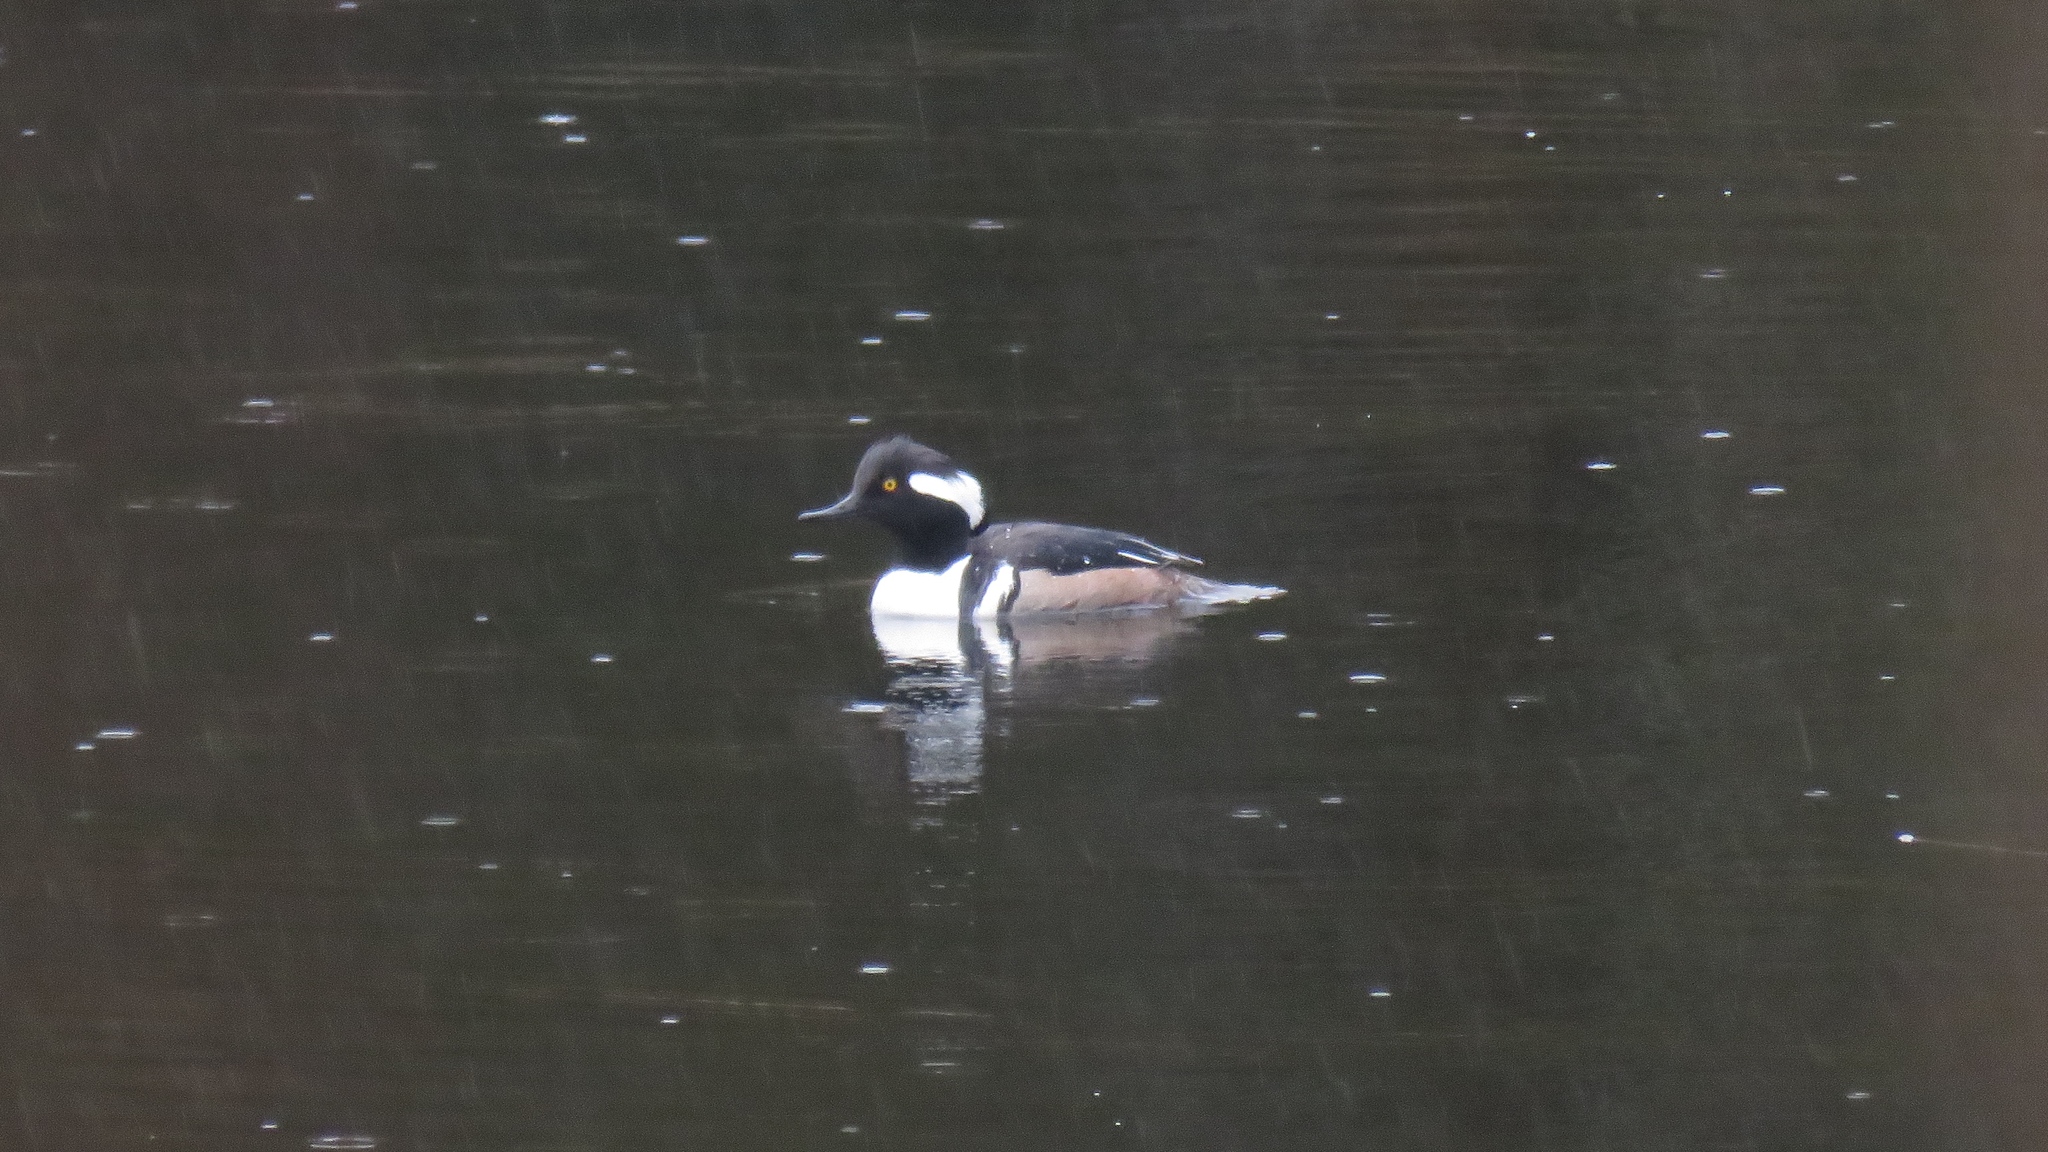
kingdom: Animalia
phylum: Chordata
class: Aves
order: Anseriformes
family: Anatidae
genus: Lophodytes
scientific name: Lophodytes cucullatus
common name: Hooded merganser
